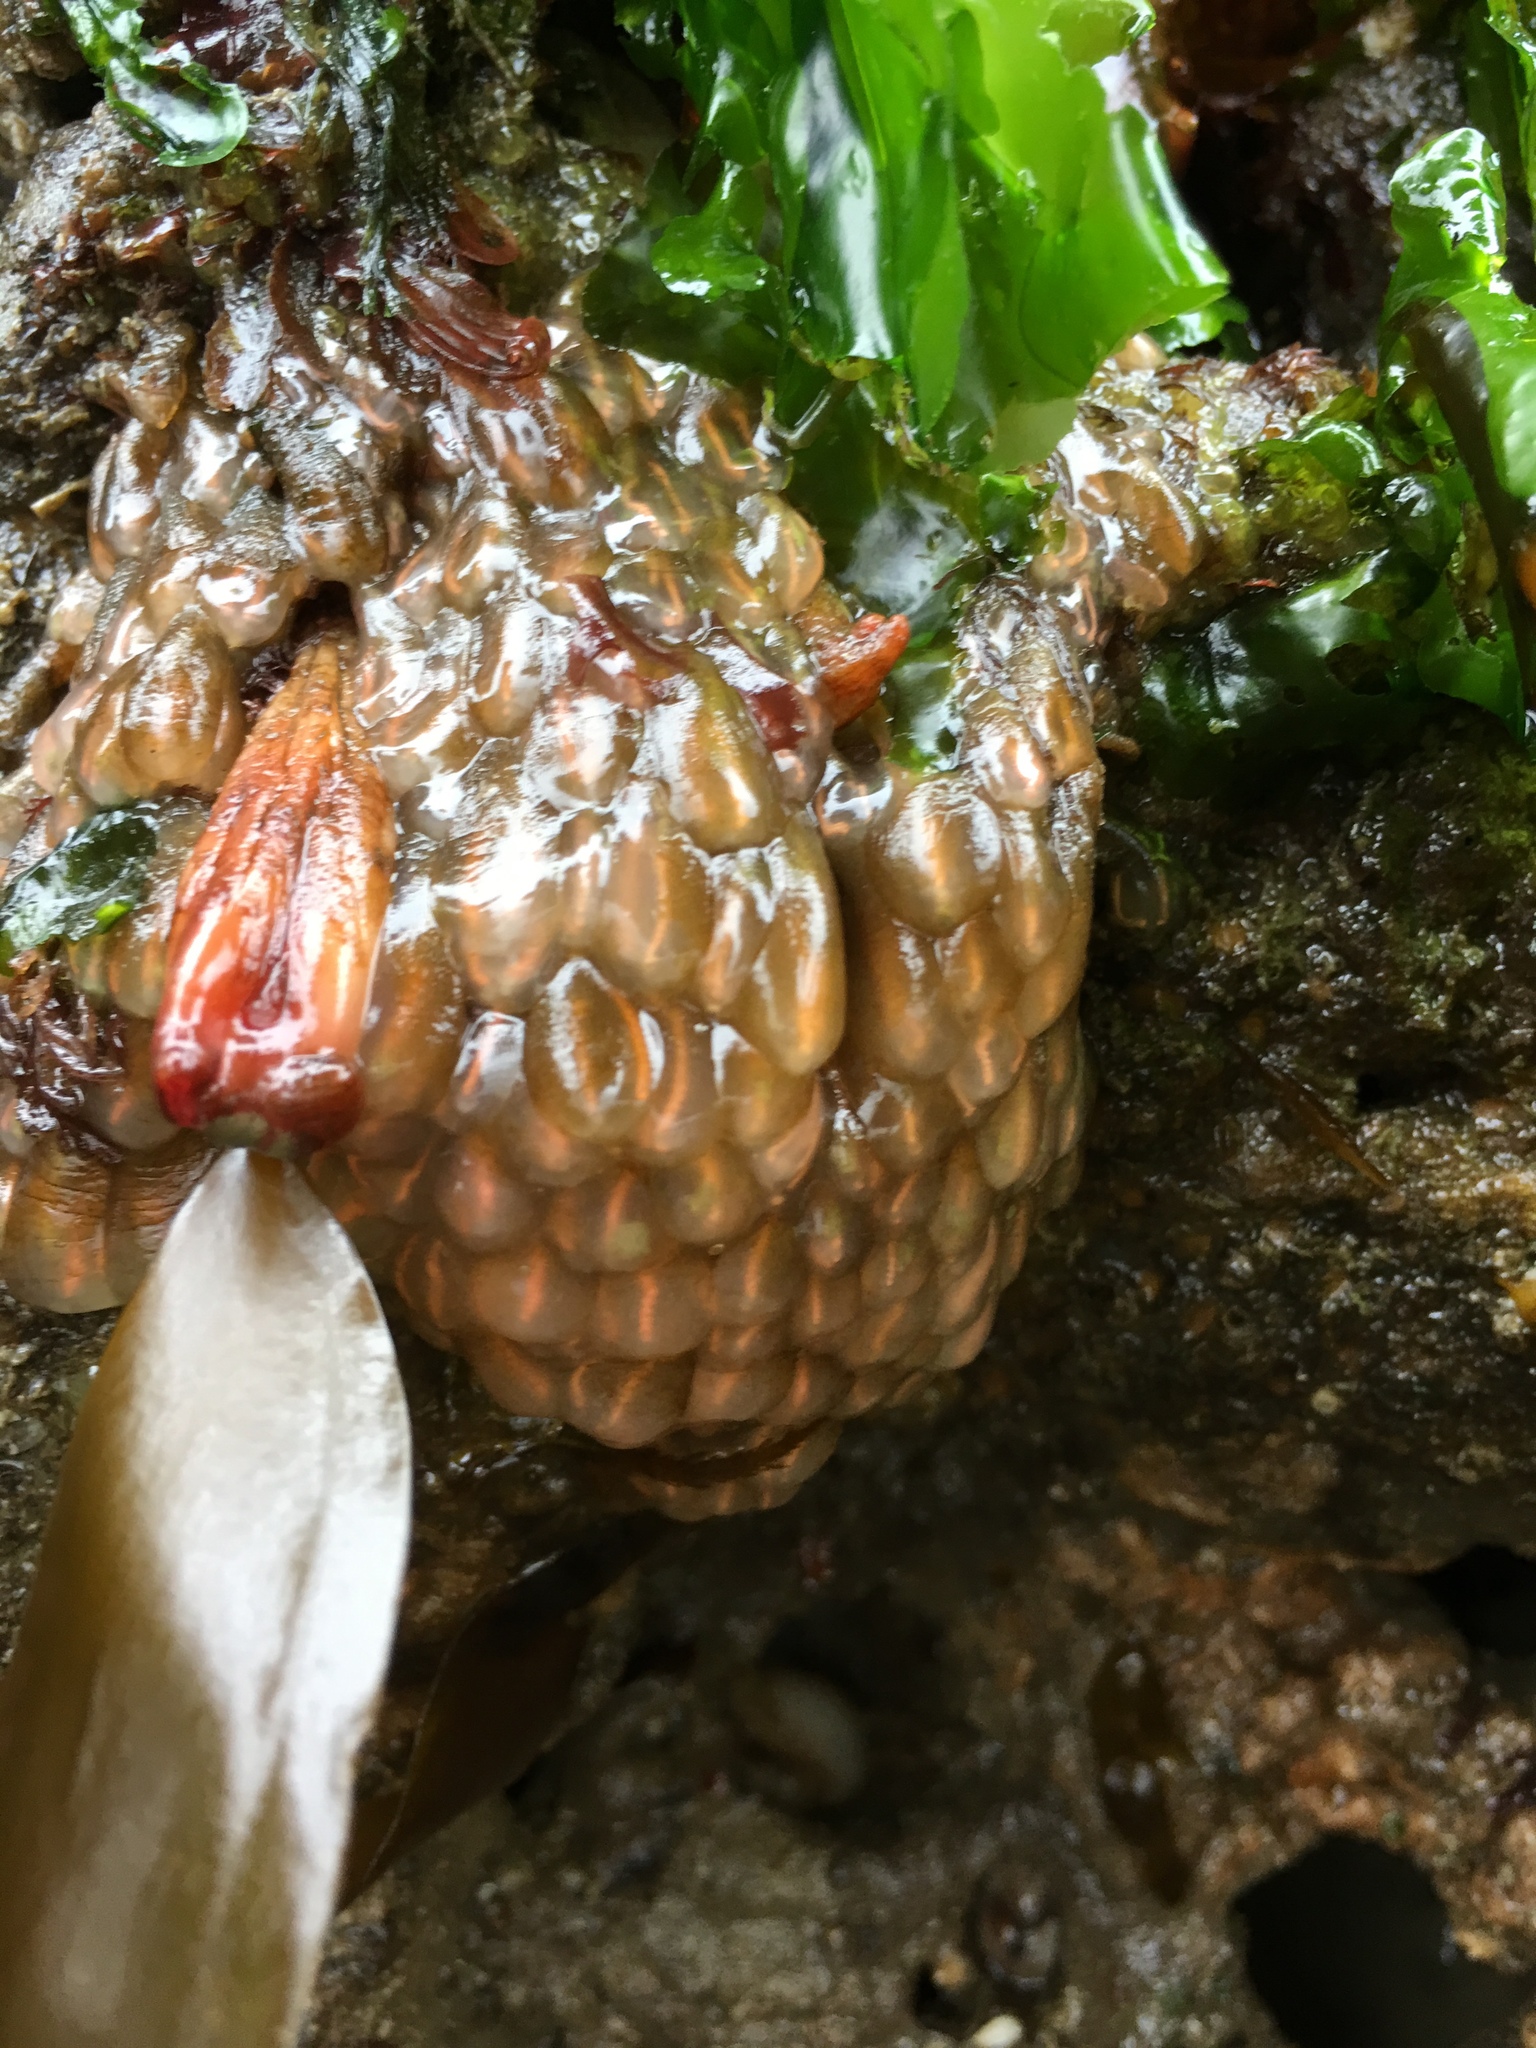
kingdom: Animalia
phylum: Chordata
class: Ascidiacea
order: Aplousobranchia
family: Clavelinidae
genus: Clavelina
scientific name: Clavelina huntsmani
